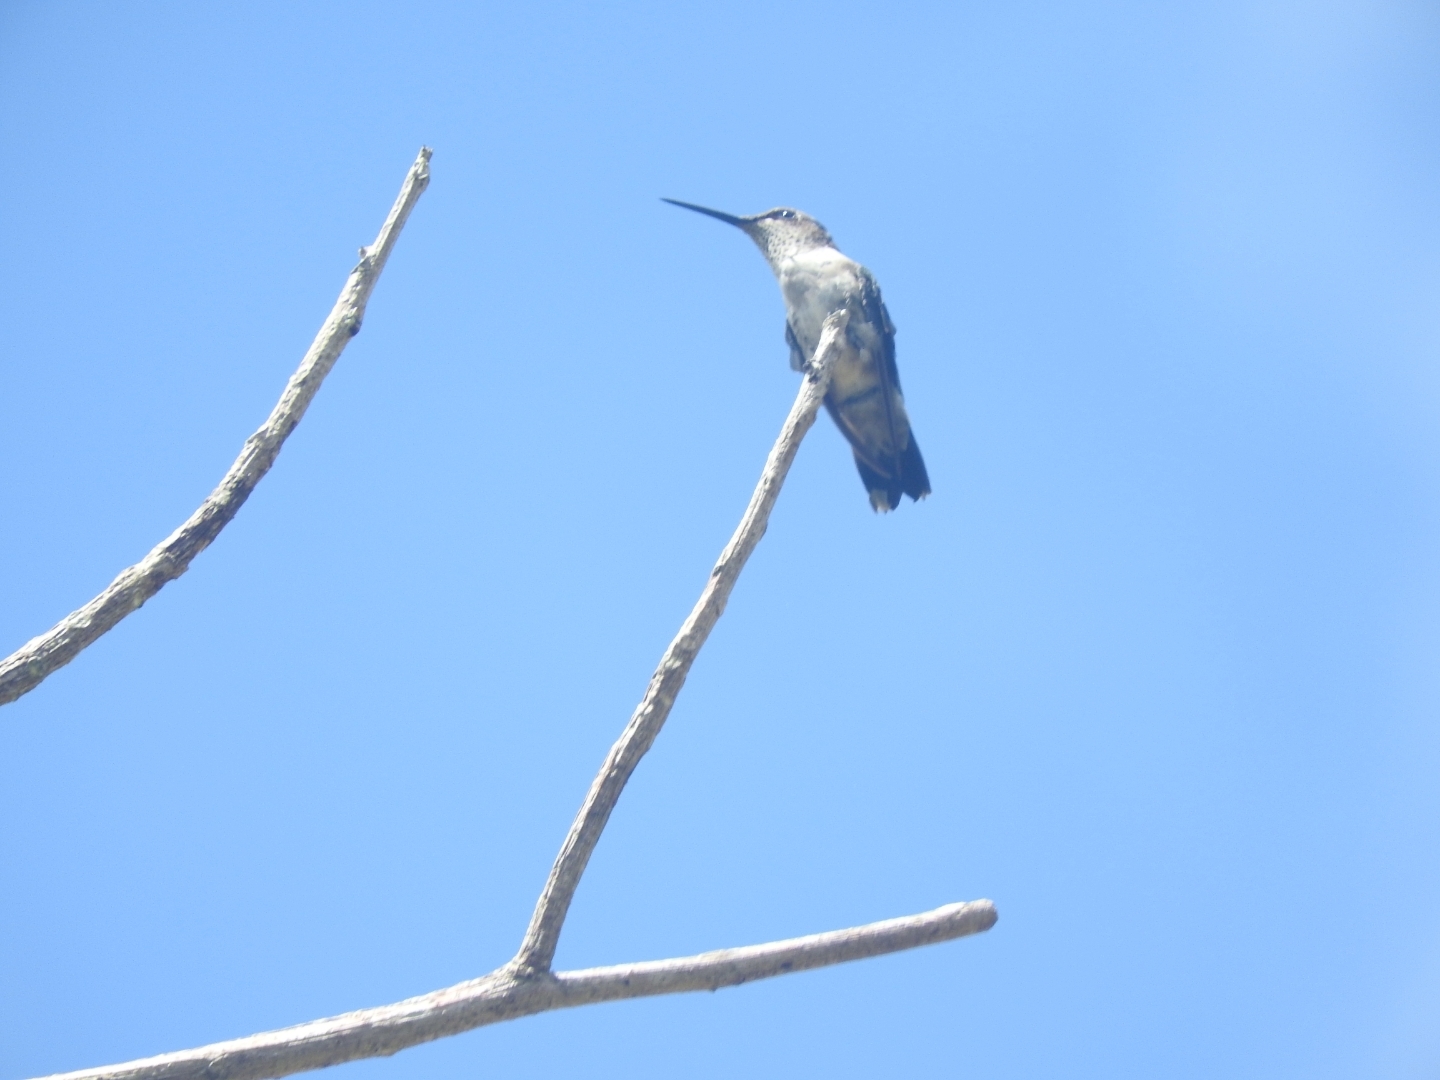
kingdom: Animalia
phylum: Chordata
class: Aves
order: Apodiformes
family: Trochilidae
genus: Archilochus
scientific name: Archilochus colubris
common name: Ruby-throated hummingbird
